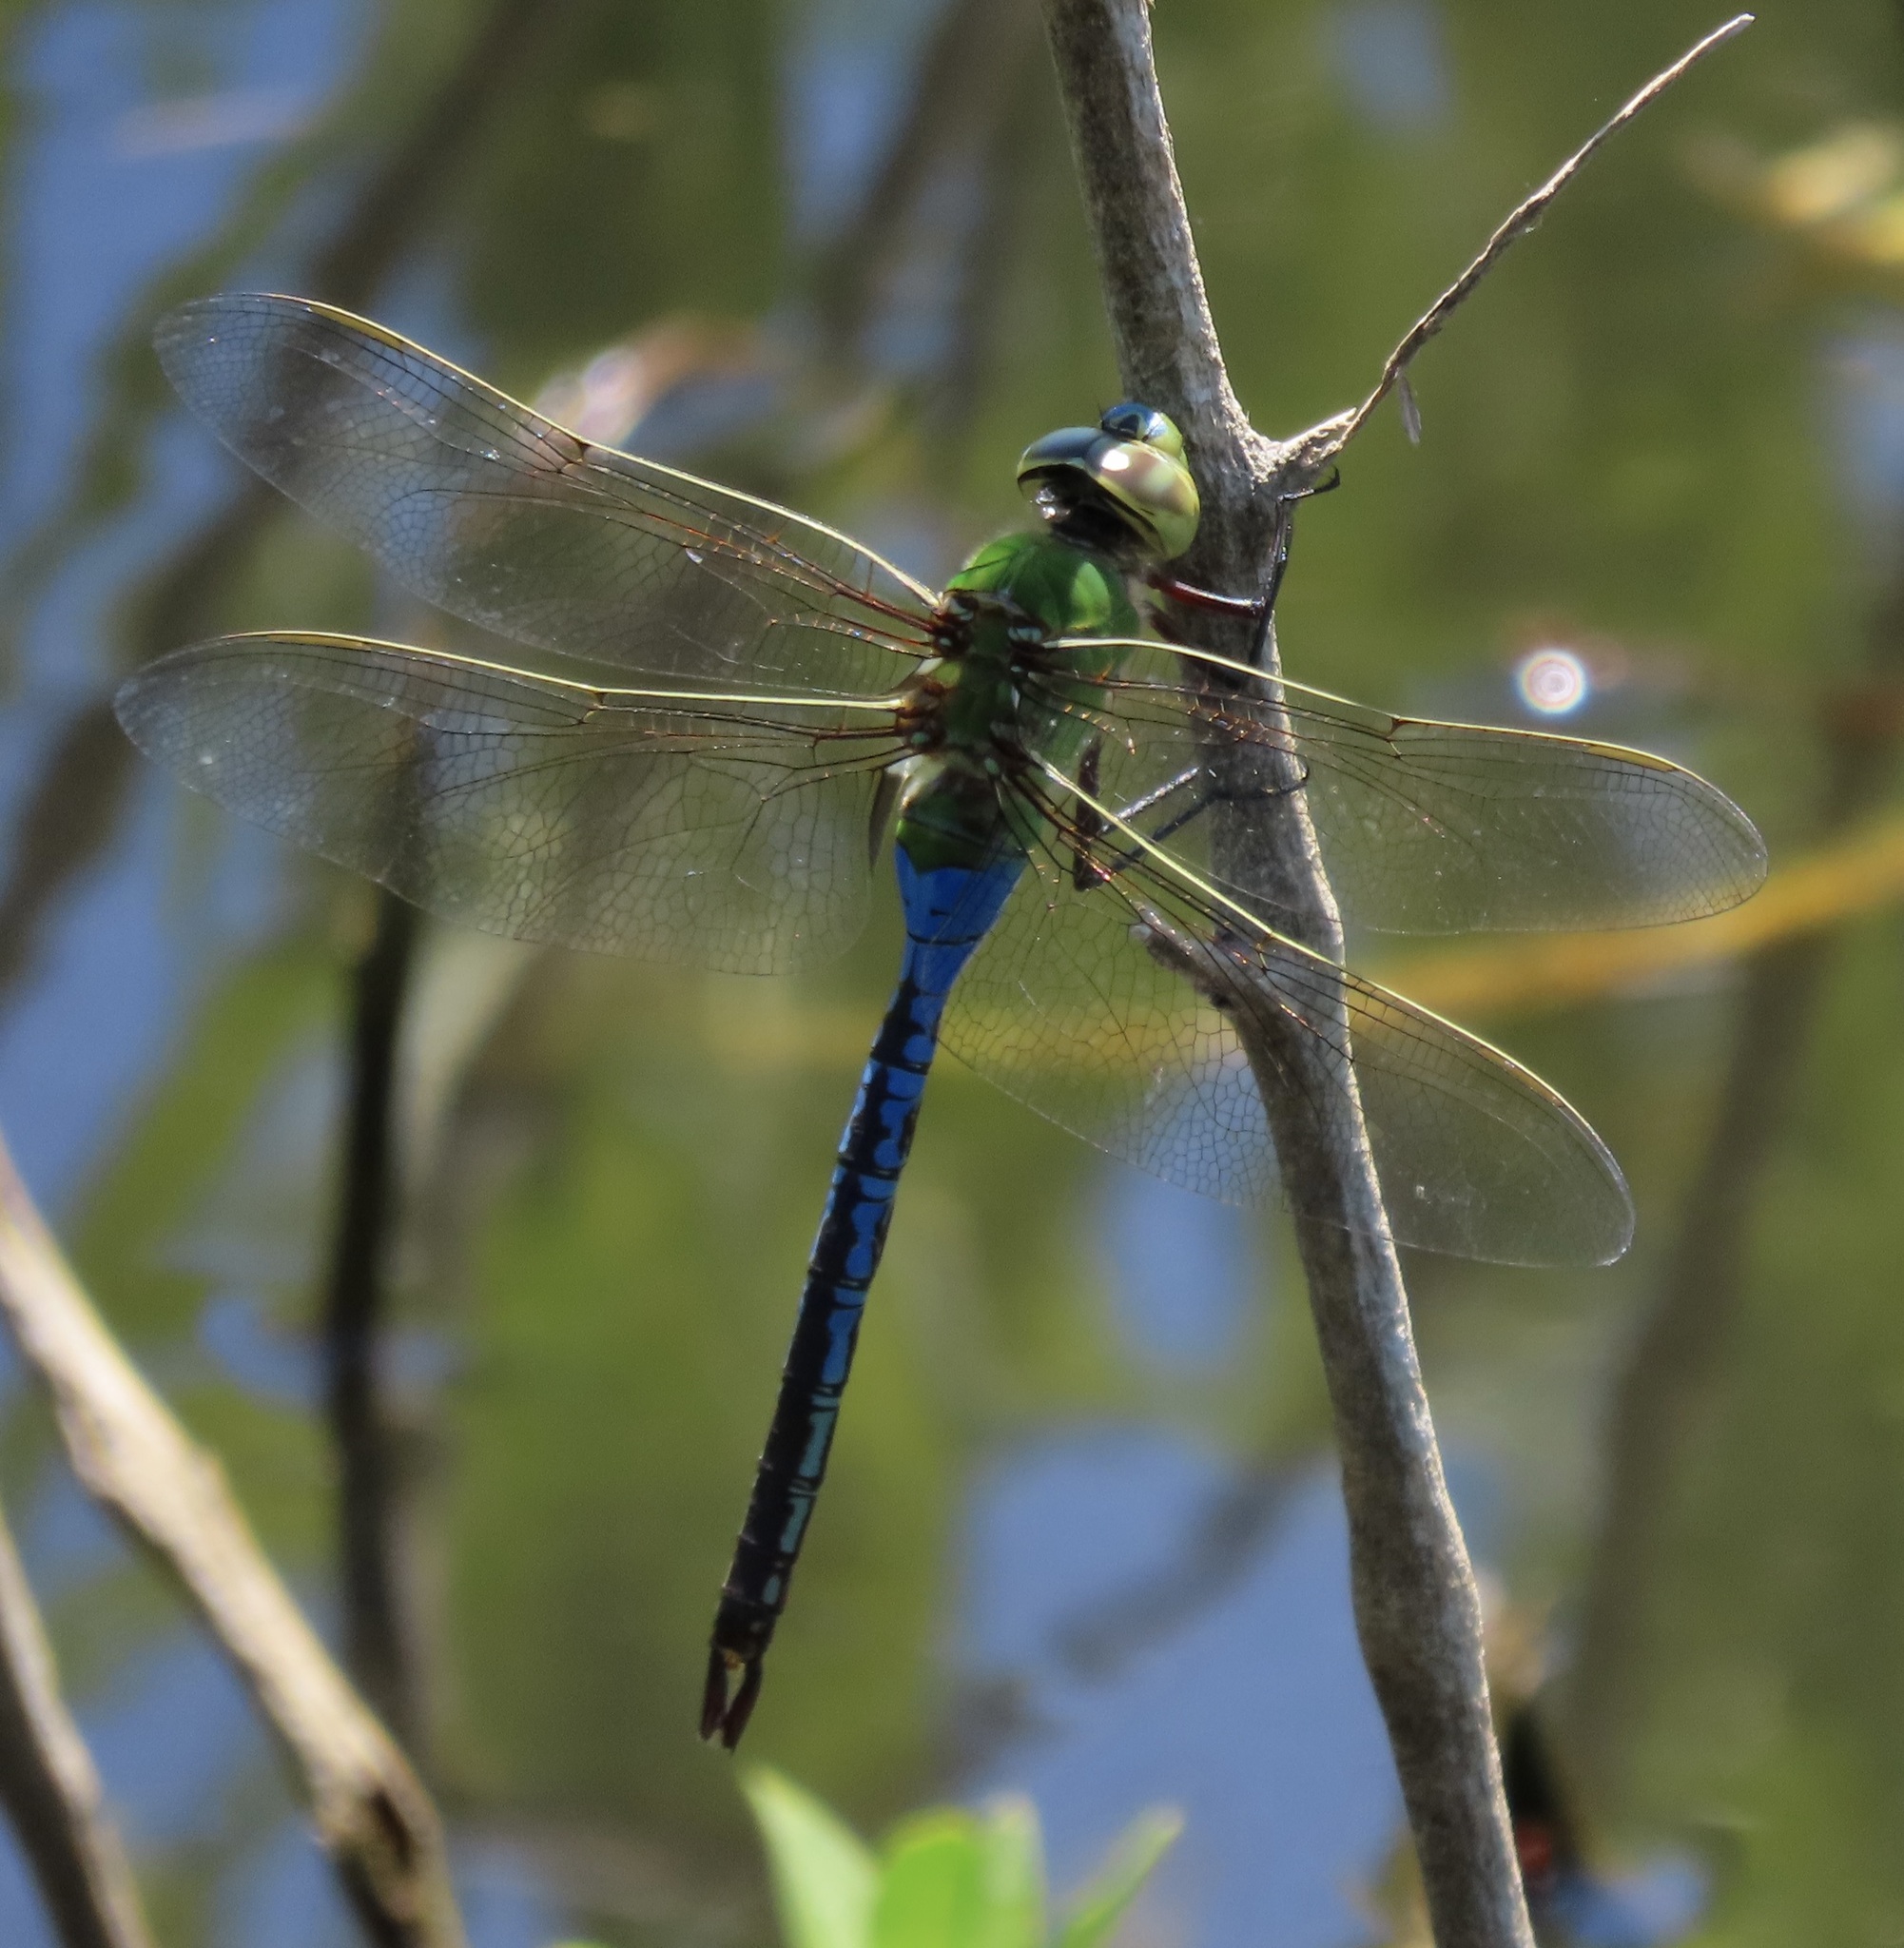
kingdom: Animalia
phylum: Arthropoda
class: Insecta
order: Odonata
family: Aeshnidae
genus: Anax
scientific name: Anax junius
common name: Common green darner
